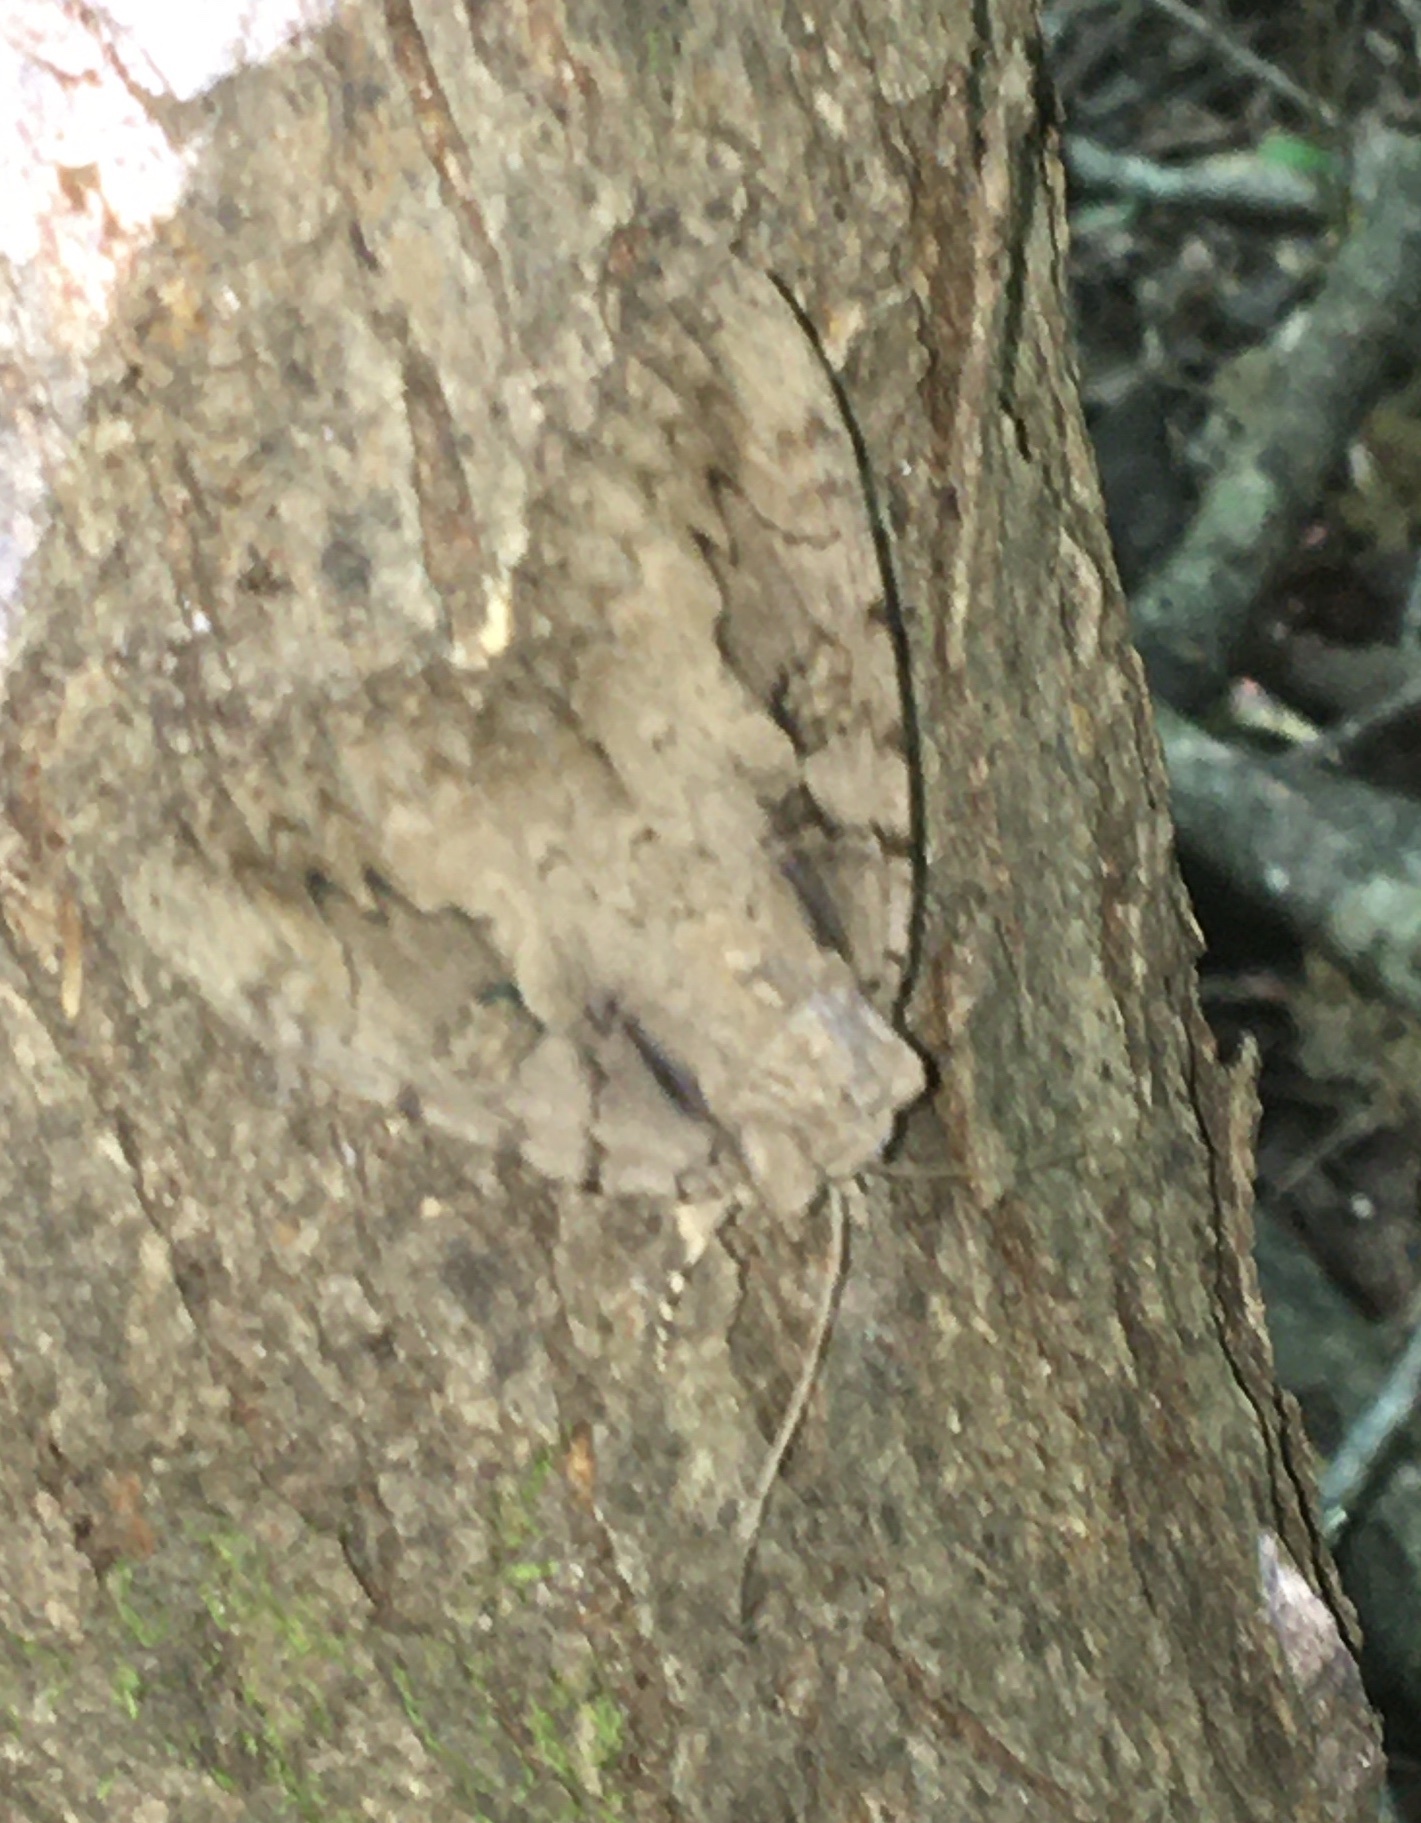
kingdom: Animalia
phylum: Arthropoda
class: Insecta
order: Lepidoptera
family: Erebidae
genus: Catocala
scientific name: Catocala amatrix
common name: Sweetheart underwing
